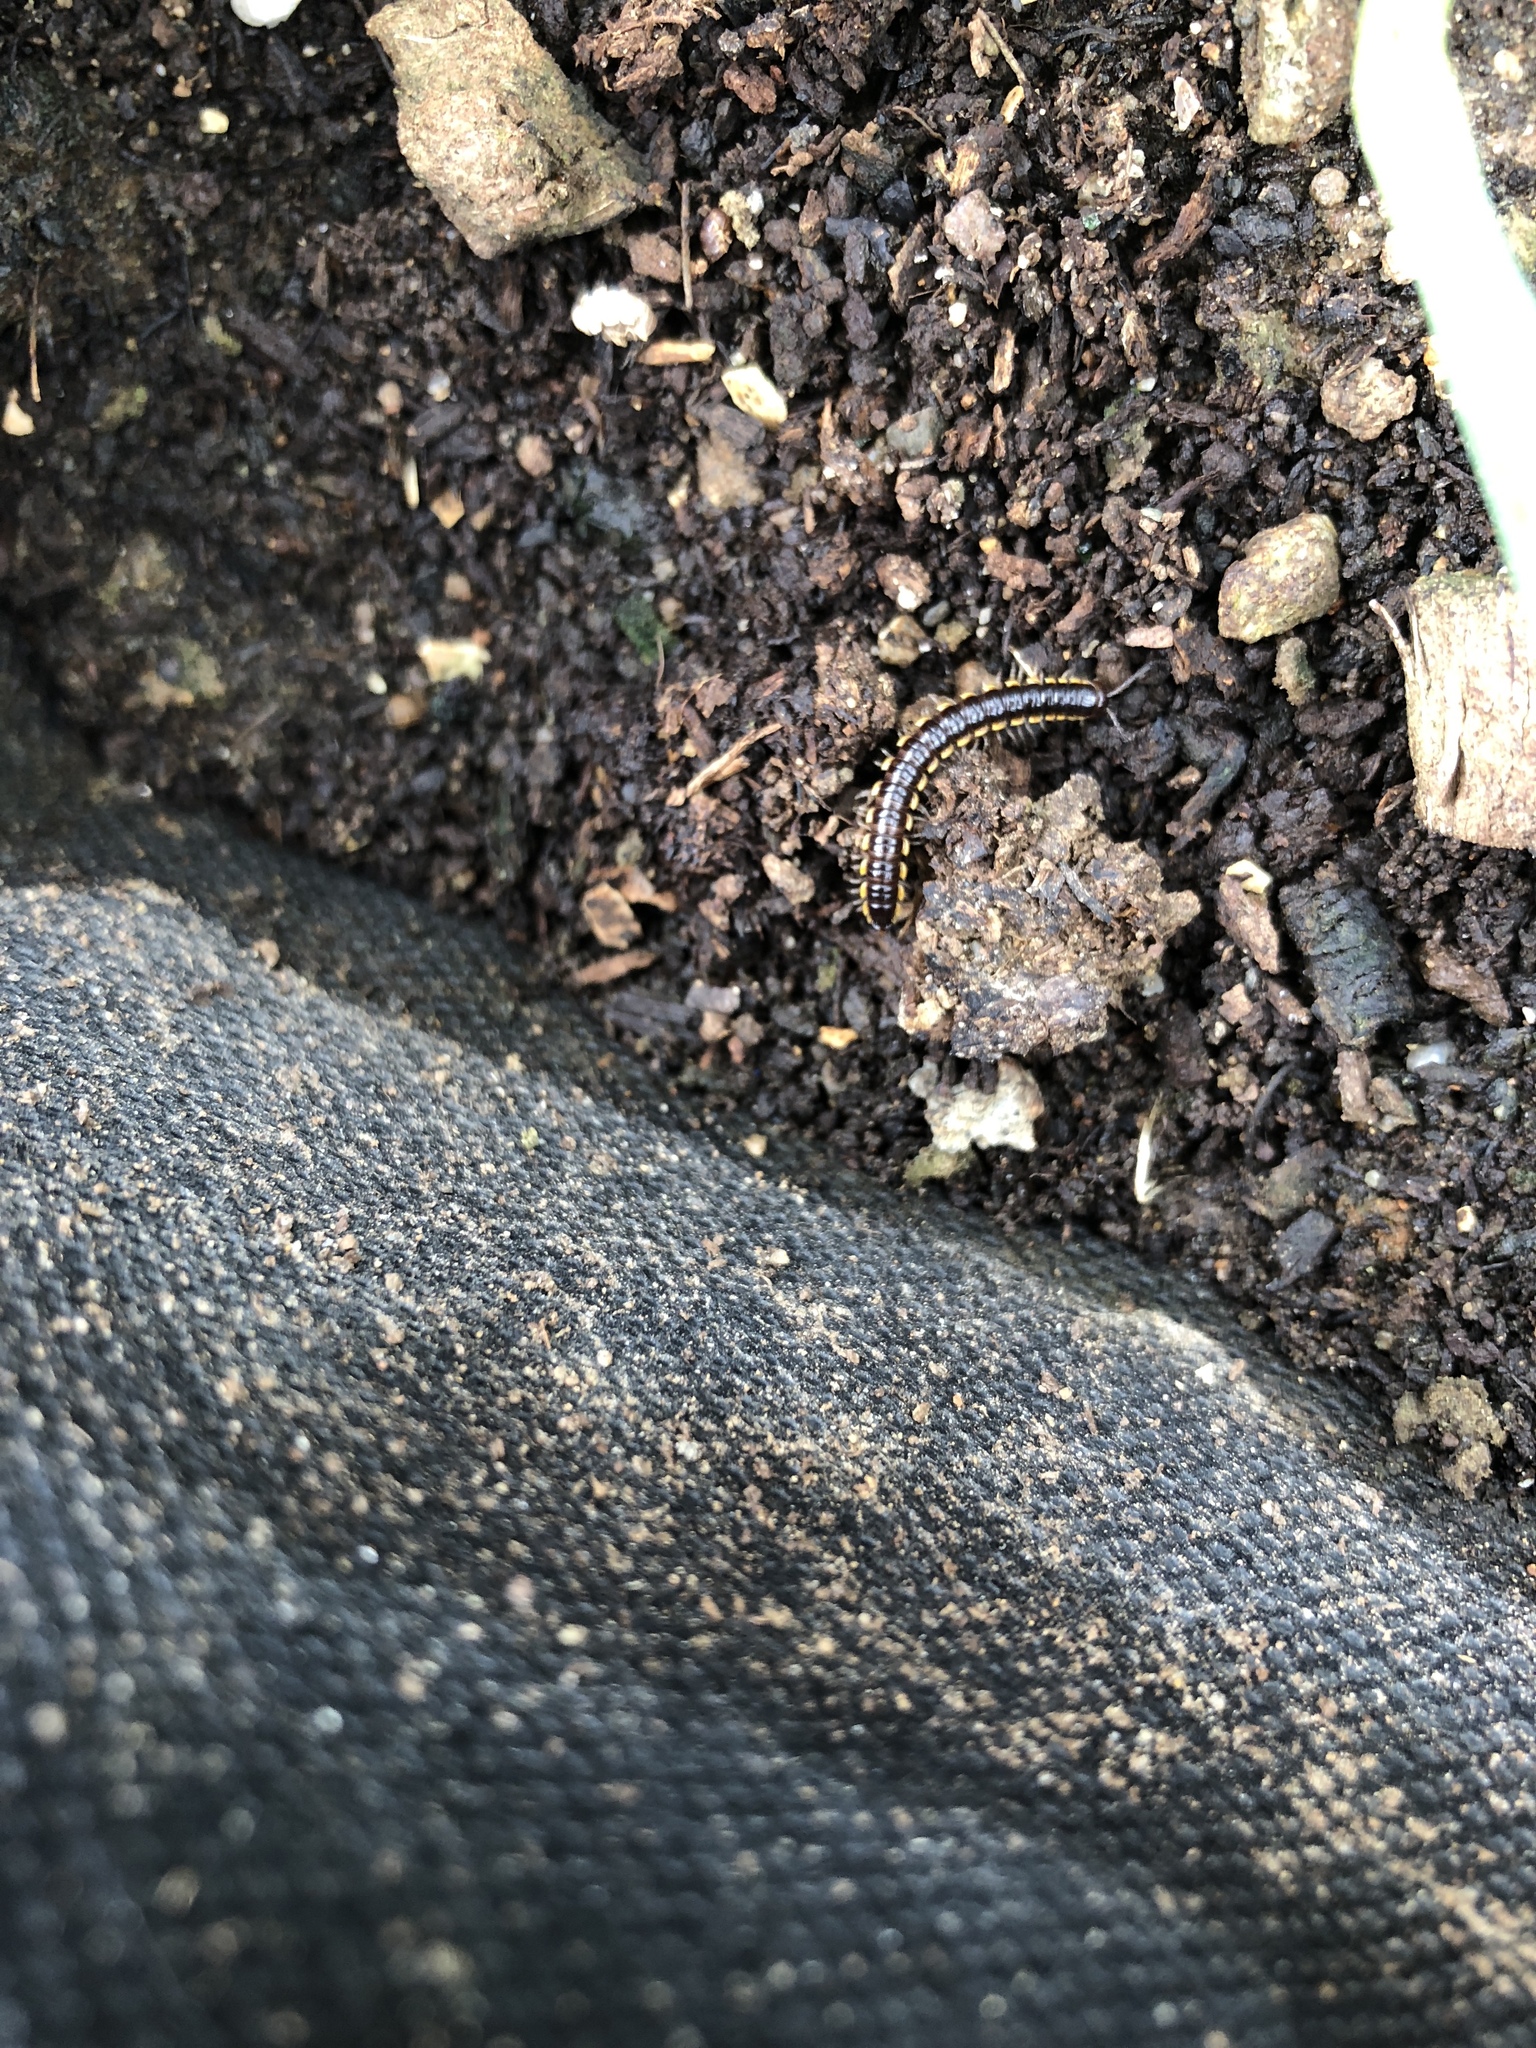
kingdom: Animalia
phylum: Arthropoda
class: Diplopoda
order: Polydesmida
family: Paradoxosomatidae
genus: Orthomorpha
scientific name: Orthomorpha coarctata
